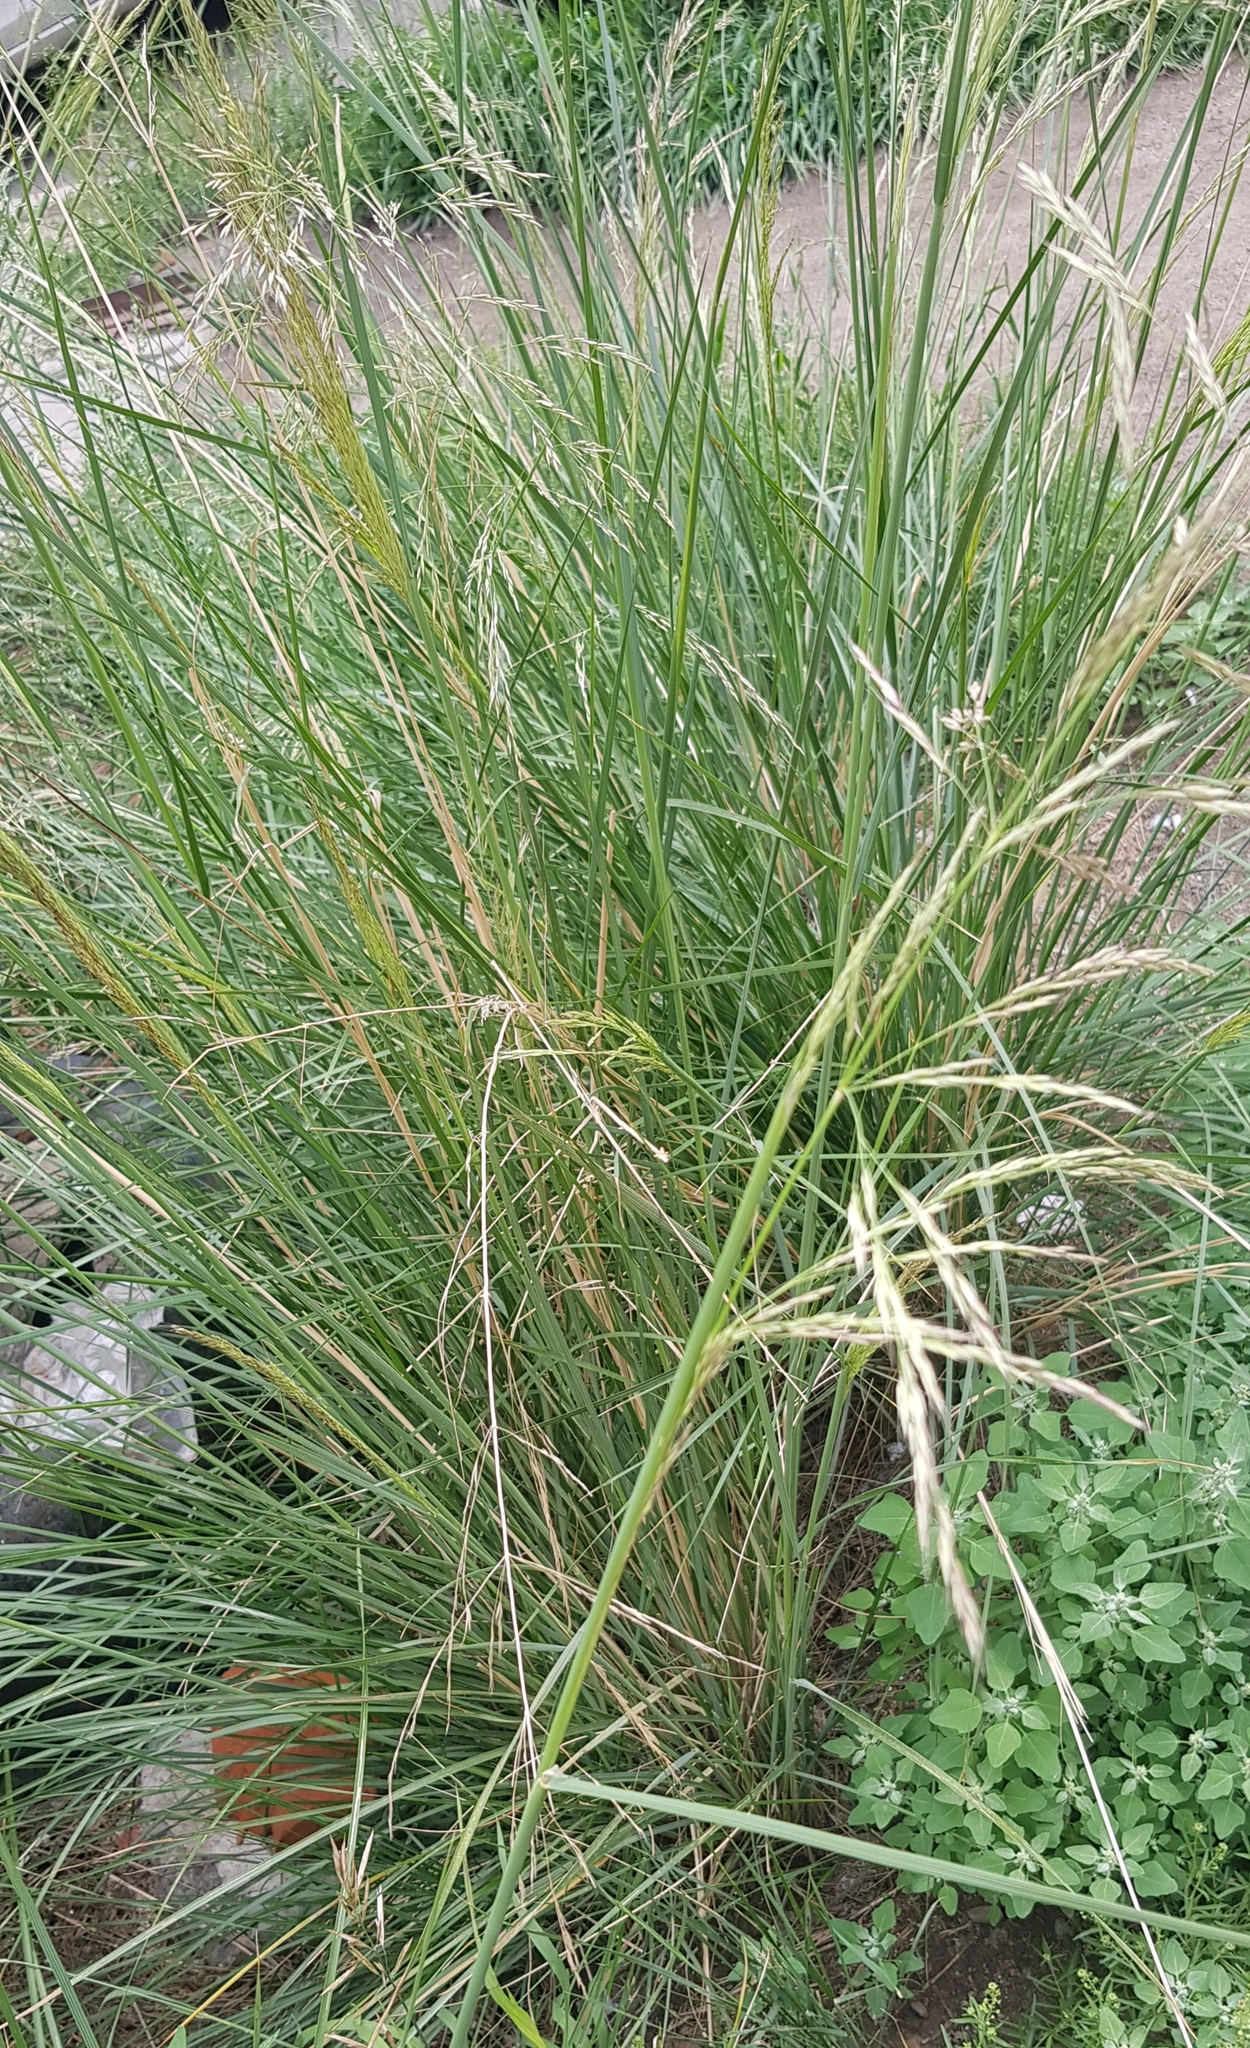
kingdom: Plantae
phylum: Tracheophyta
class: Liliopsida
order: Poales
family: Poaceae
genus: Neotrinia
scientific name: Neotrinia splendens
